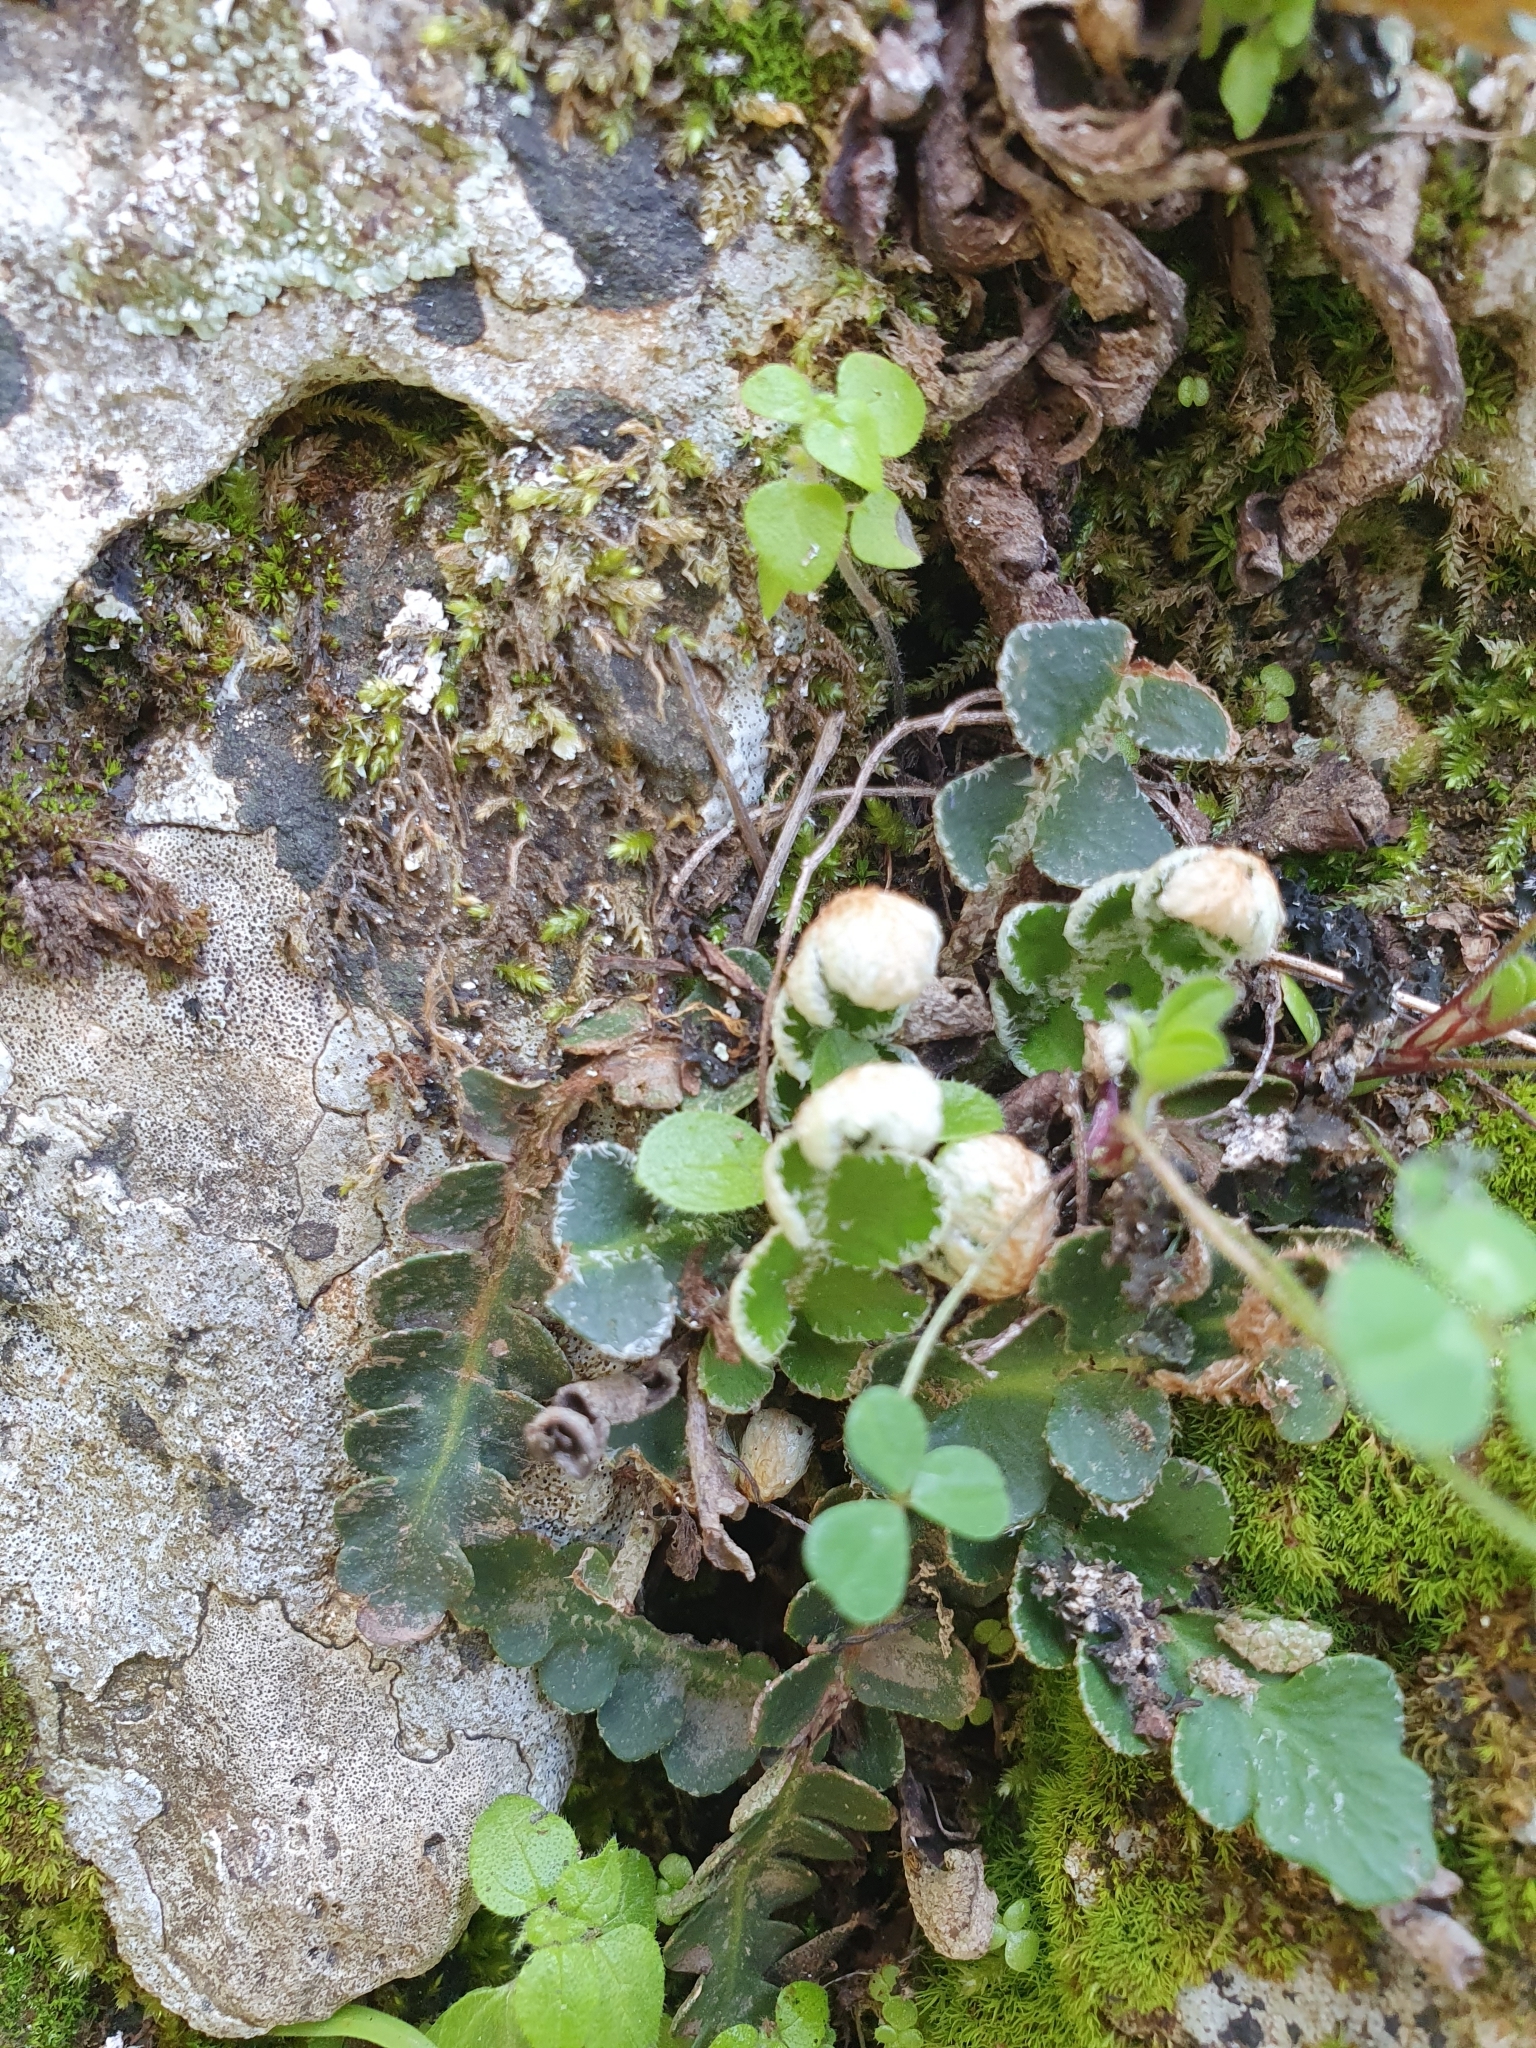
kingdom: Plantae
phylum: Tracheophyta
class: Polypodiopsida
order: Polypodiales
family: Aspleniaceae
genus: Asplenium
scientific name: Asplenium ceterach
